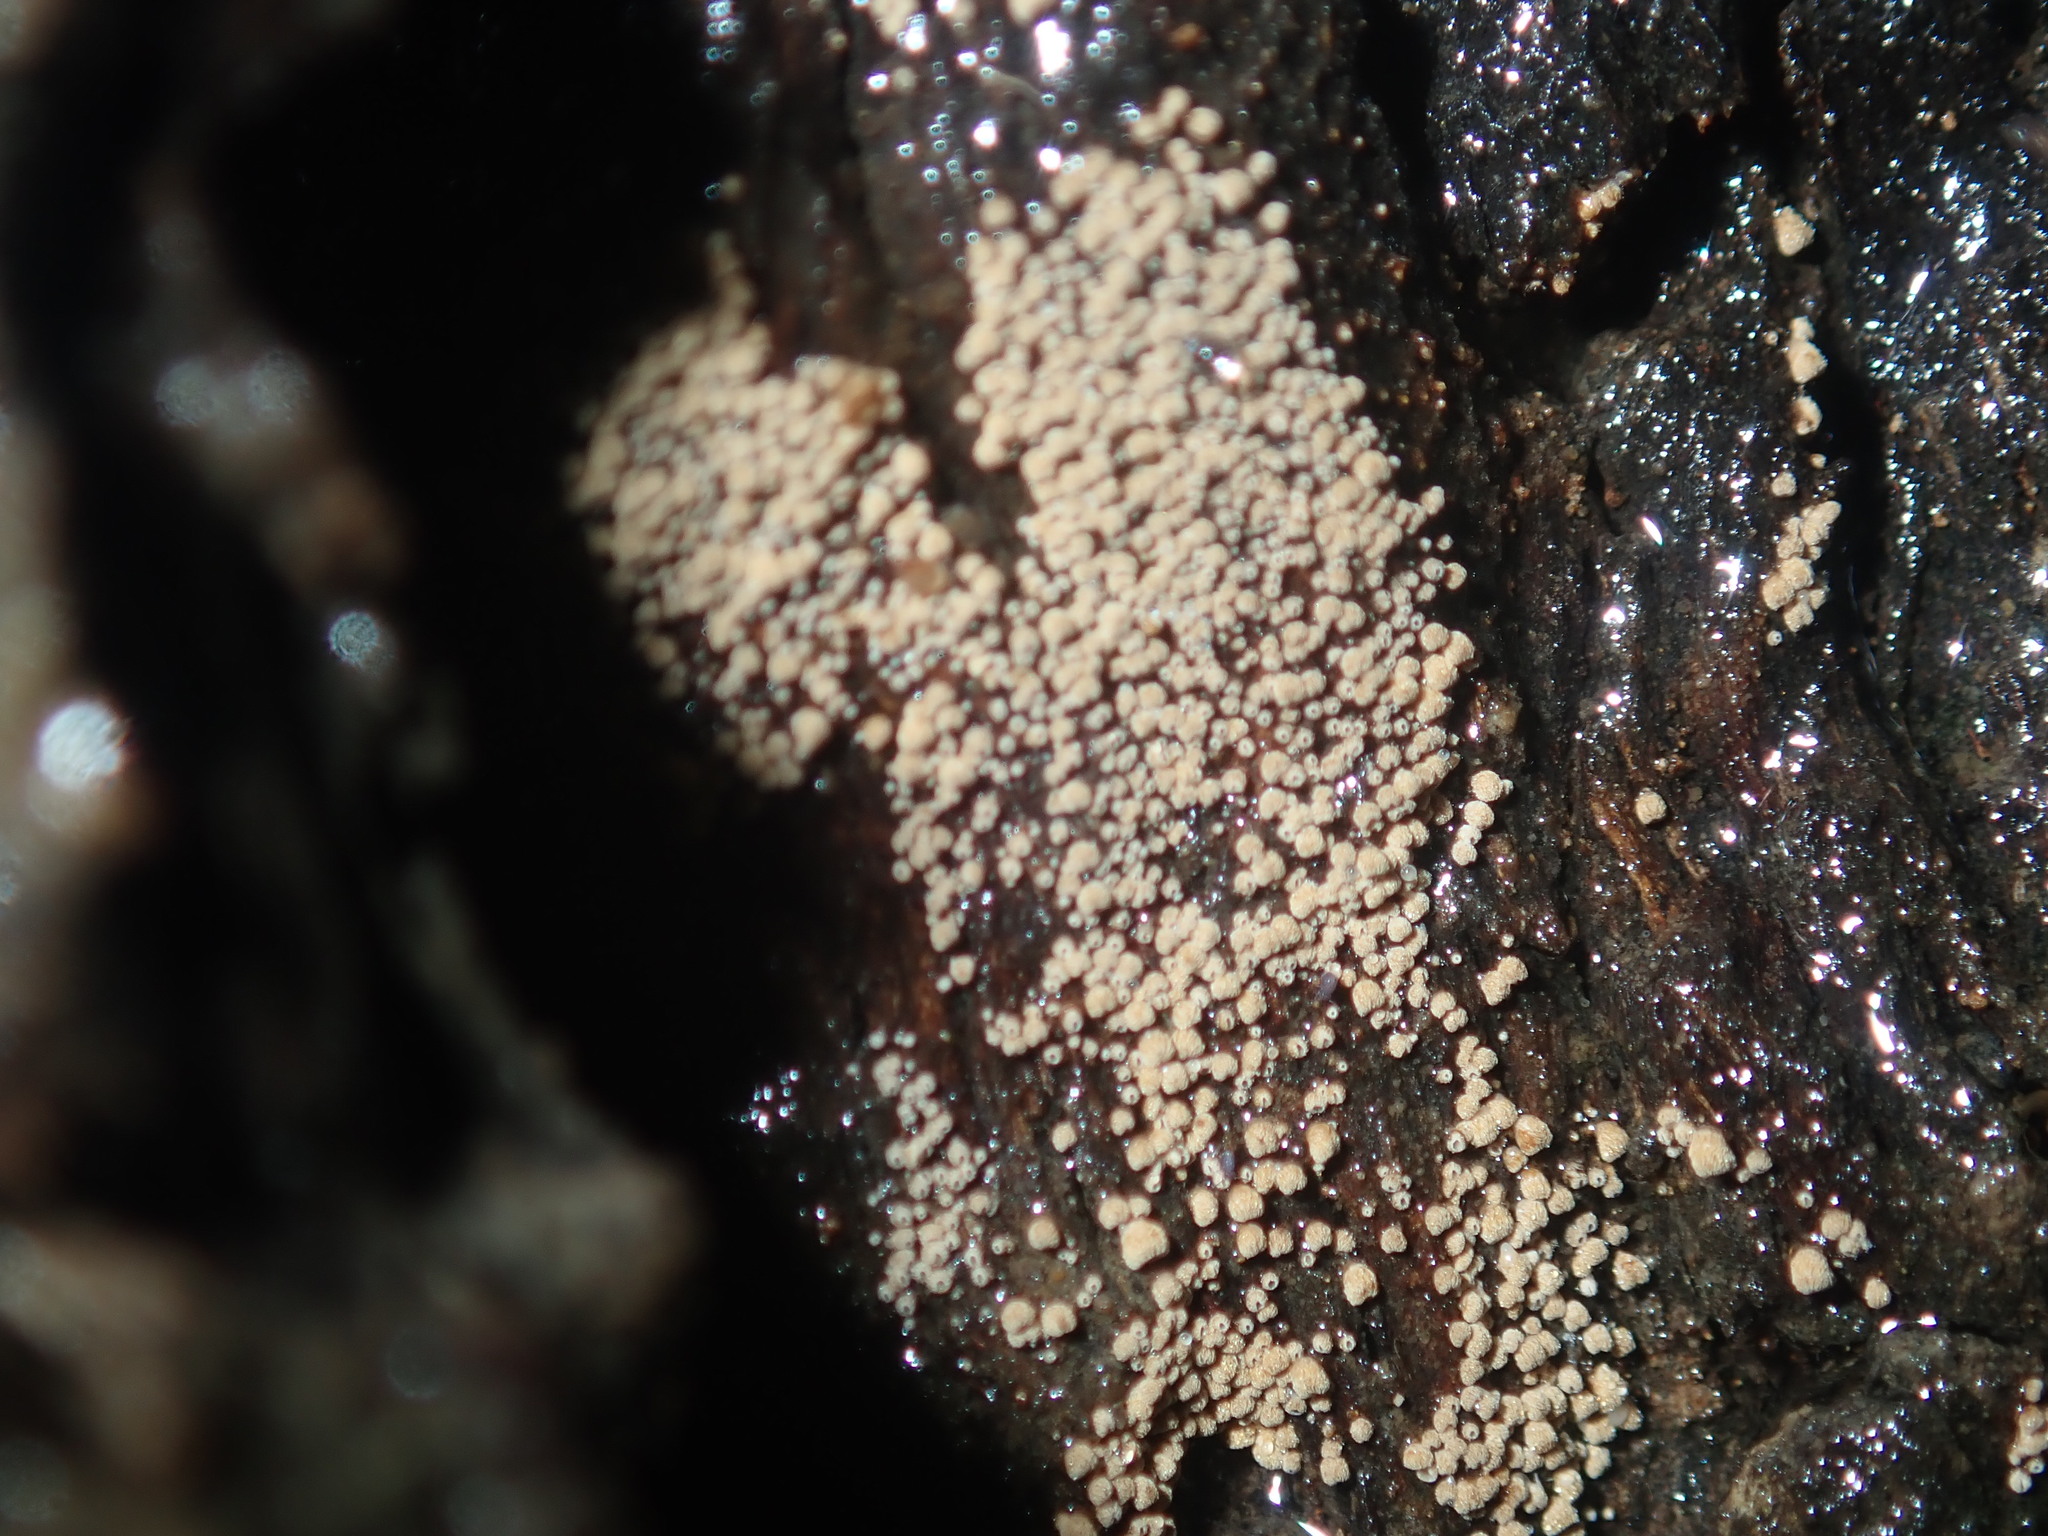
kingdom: Fungi
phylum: Basidiomycota
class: Agaricomycetes
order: Agaricales
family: Niaceae
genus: Merismodes
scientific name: Merismodes fasciculata
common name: Crowded cuplet
